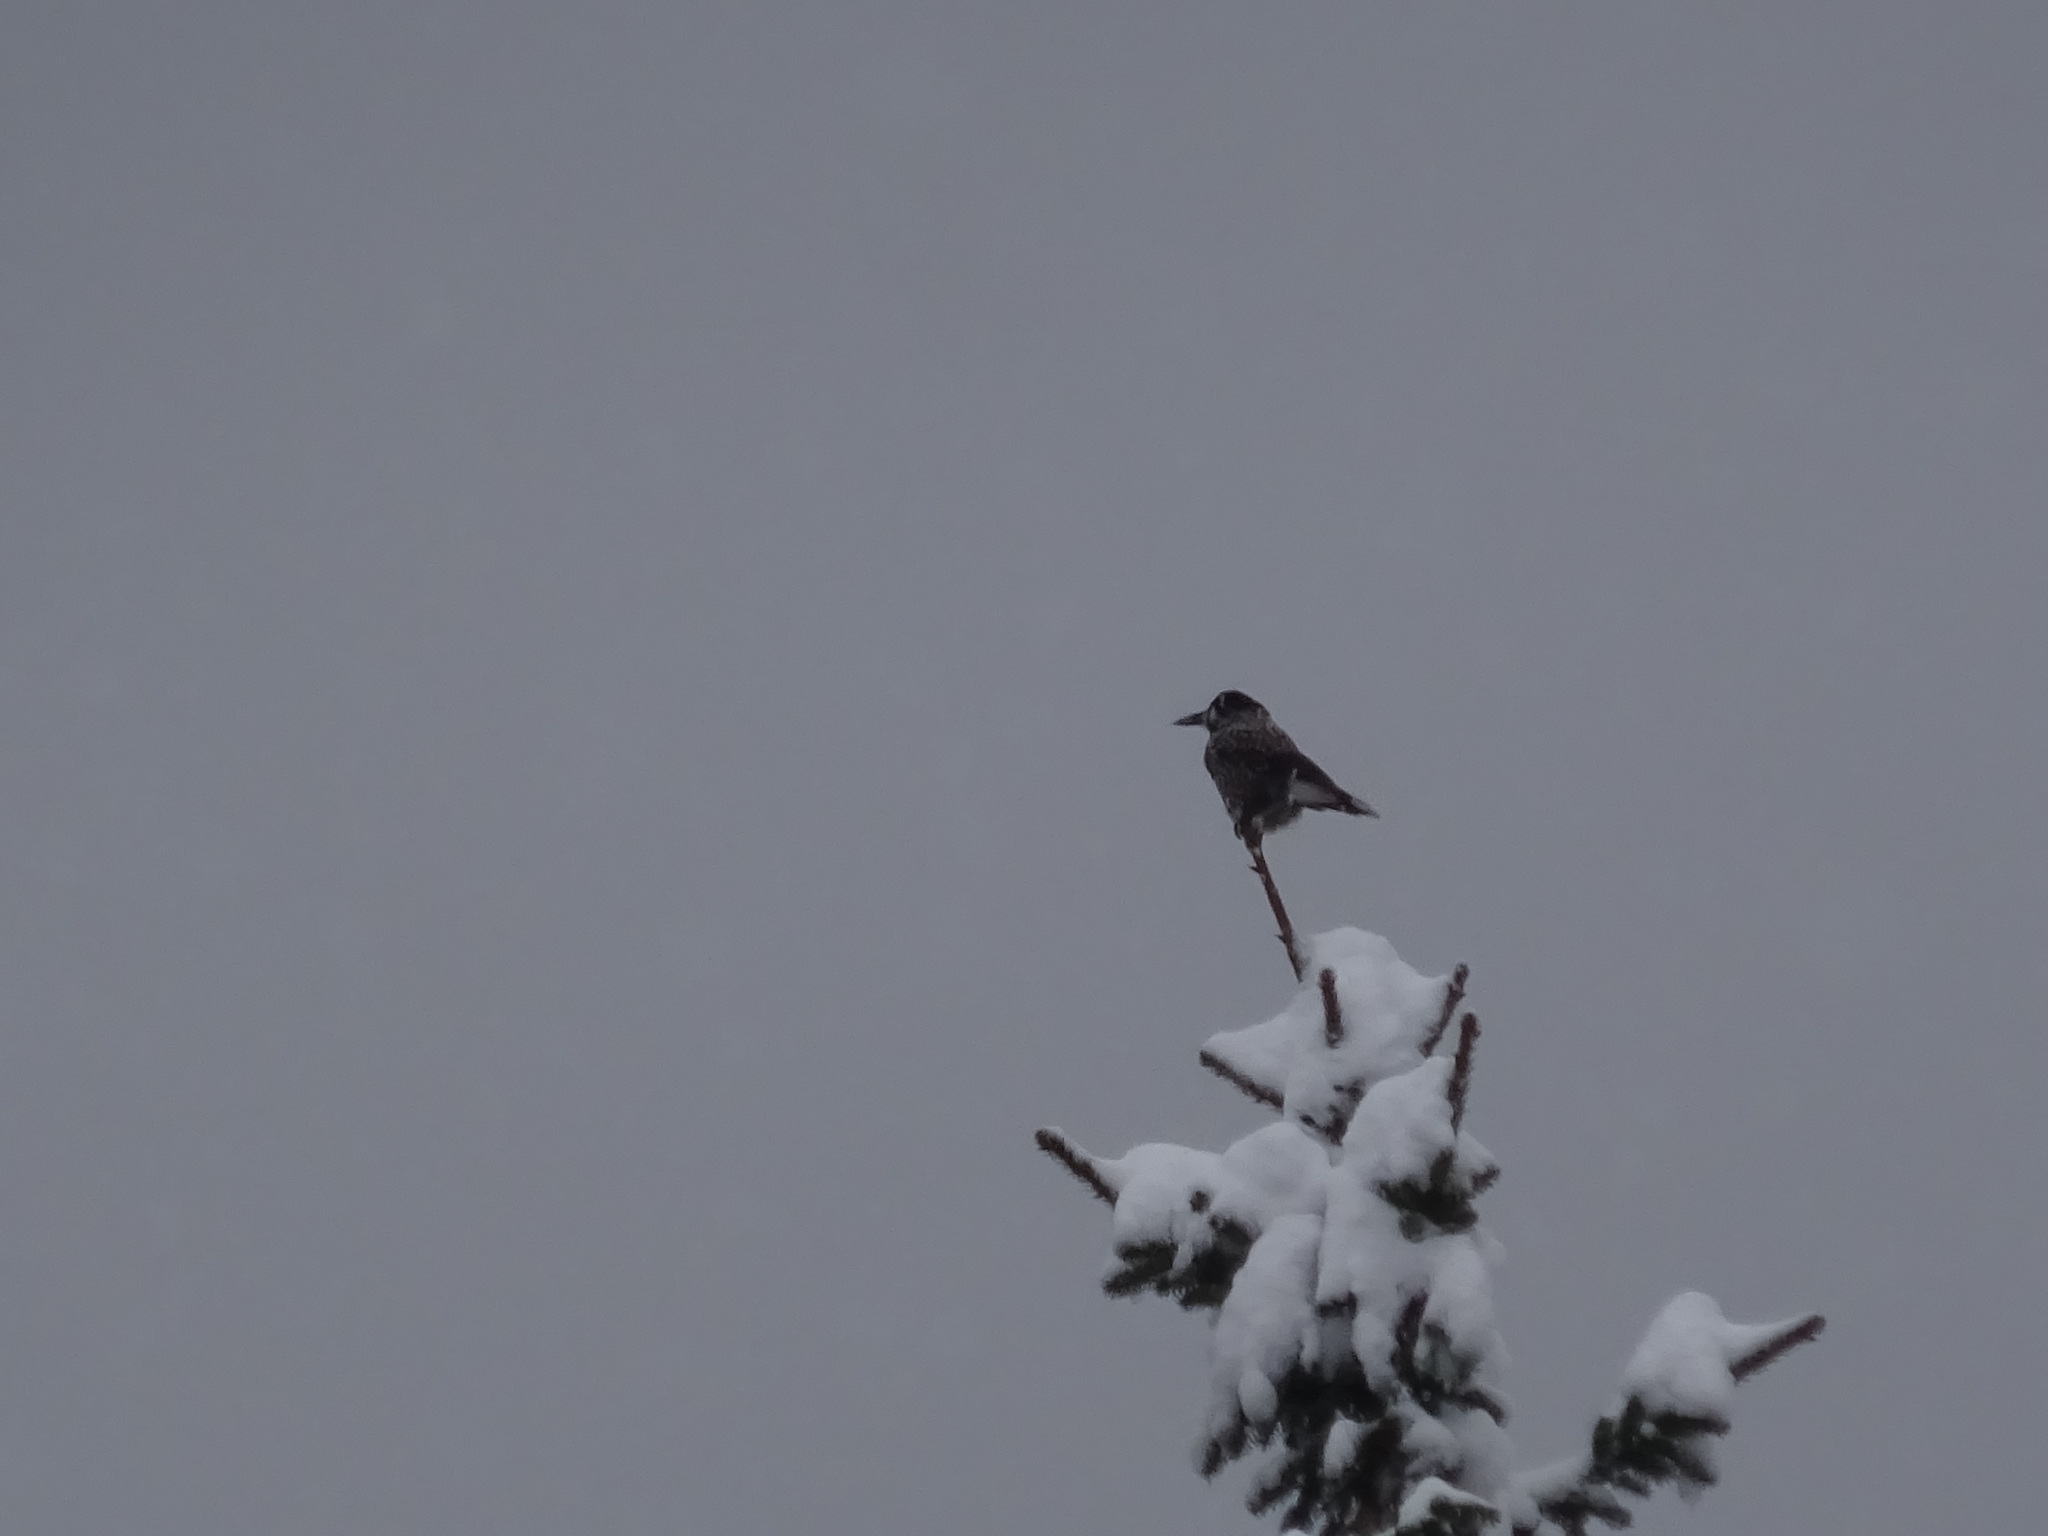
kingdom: Animalia
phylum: Chordata
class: Aves
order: Passeriformes
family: Corvidae
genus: Nucifraga
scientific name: Nucifraga caryocatactes
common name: Spotted nutcracker
